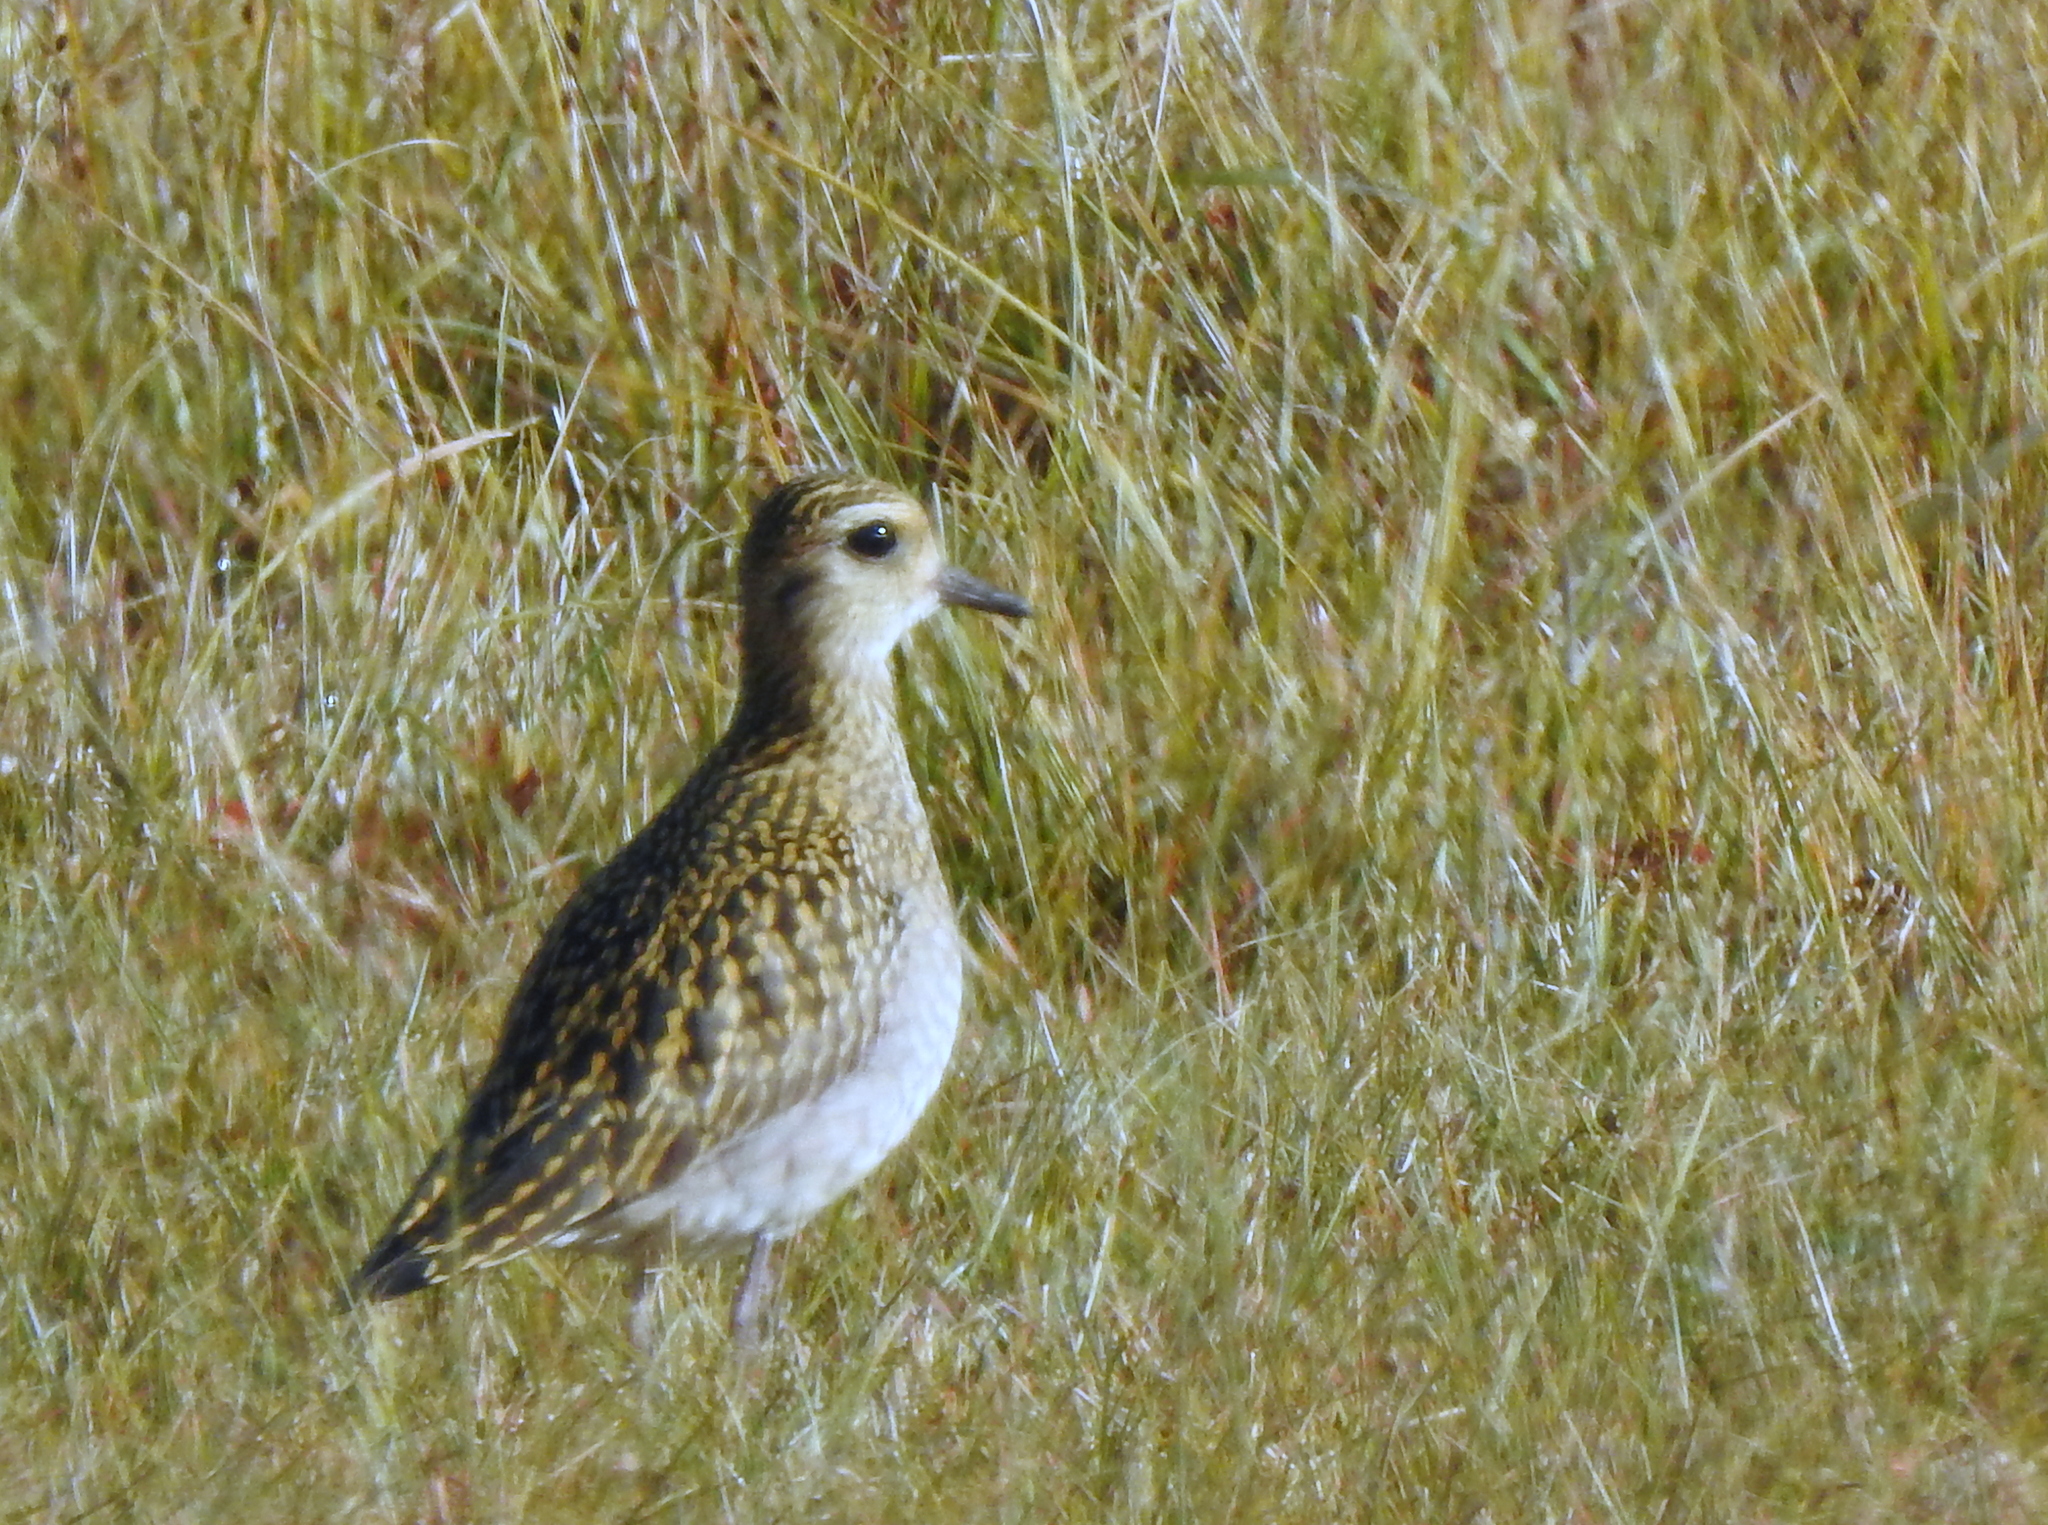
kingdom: Animalia
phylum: Chordata
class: Aves
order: Charadriiformes
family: Charadriidae
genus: Pluvialis
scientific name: Pluvialis fulva
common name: Pacific golden plover
